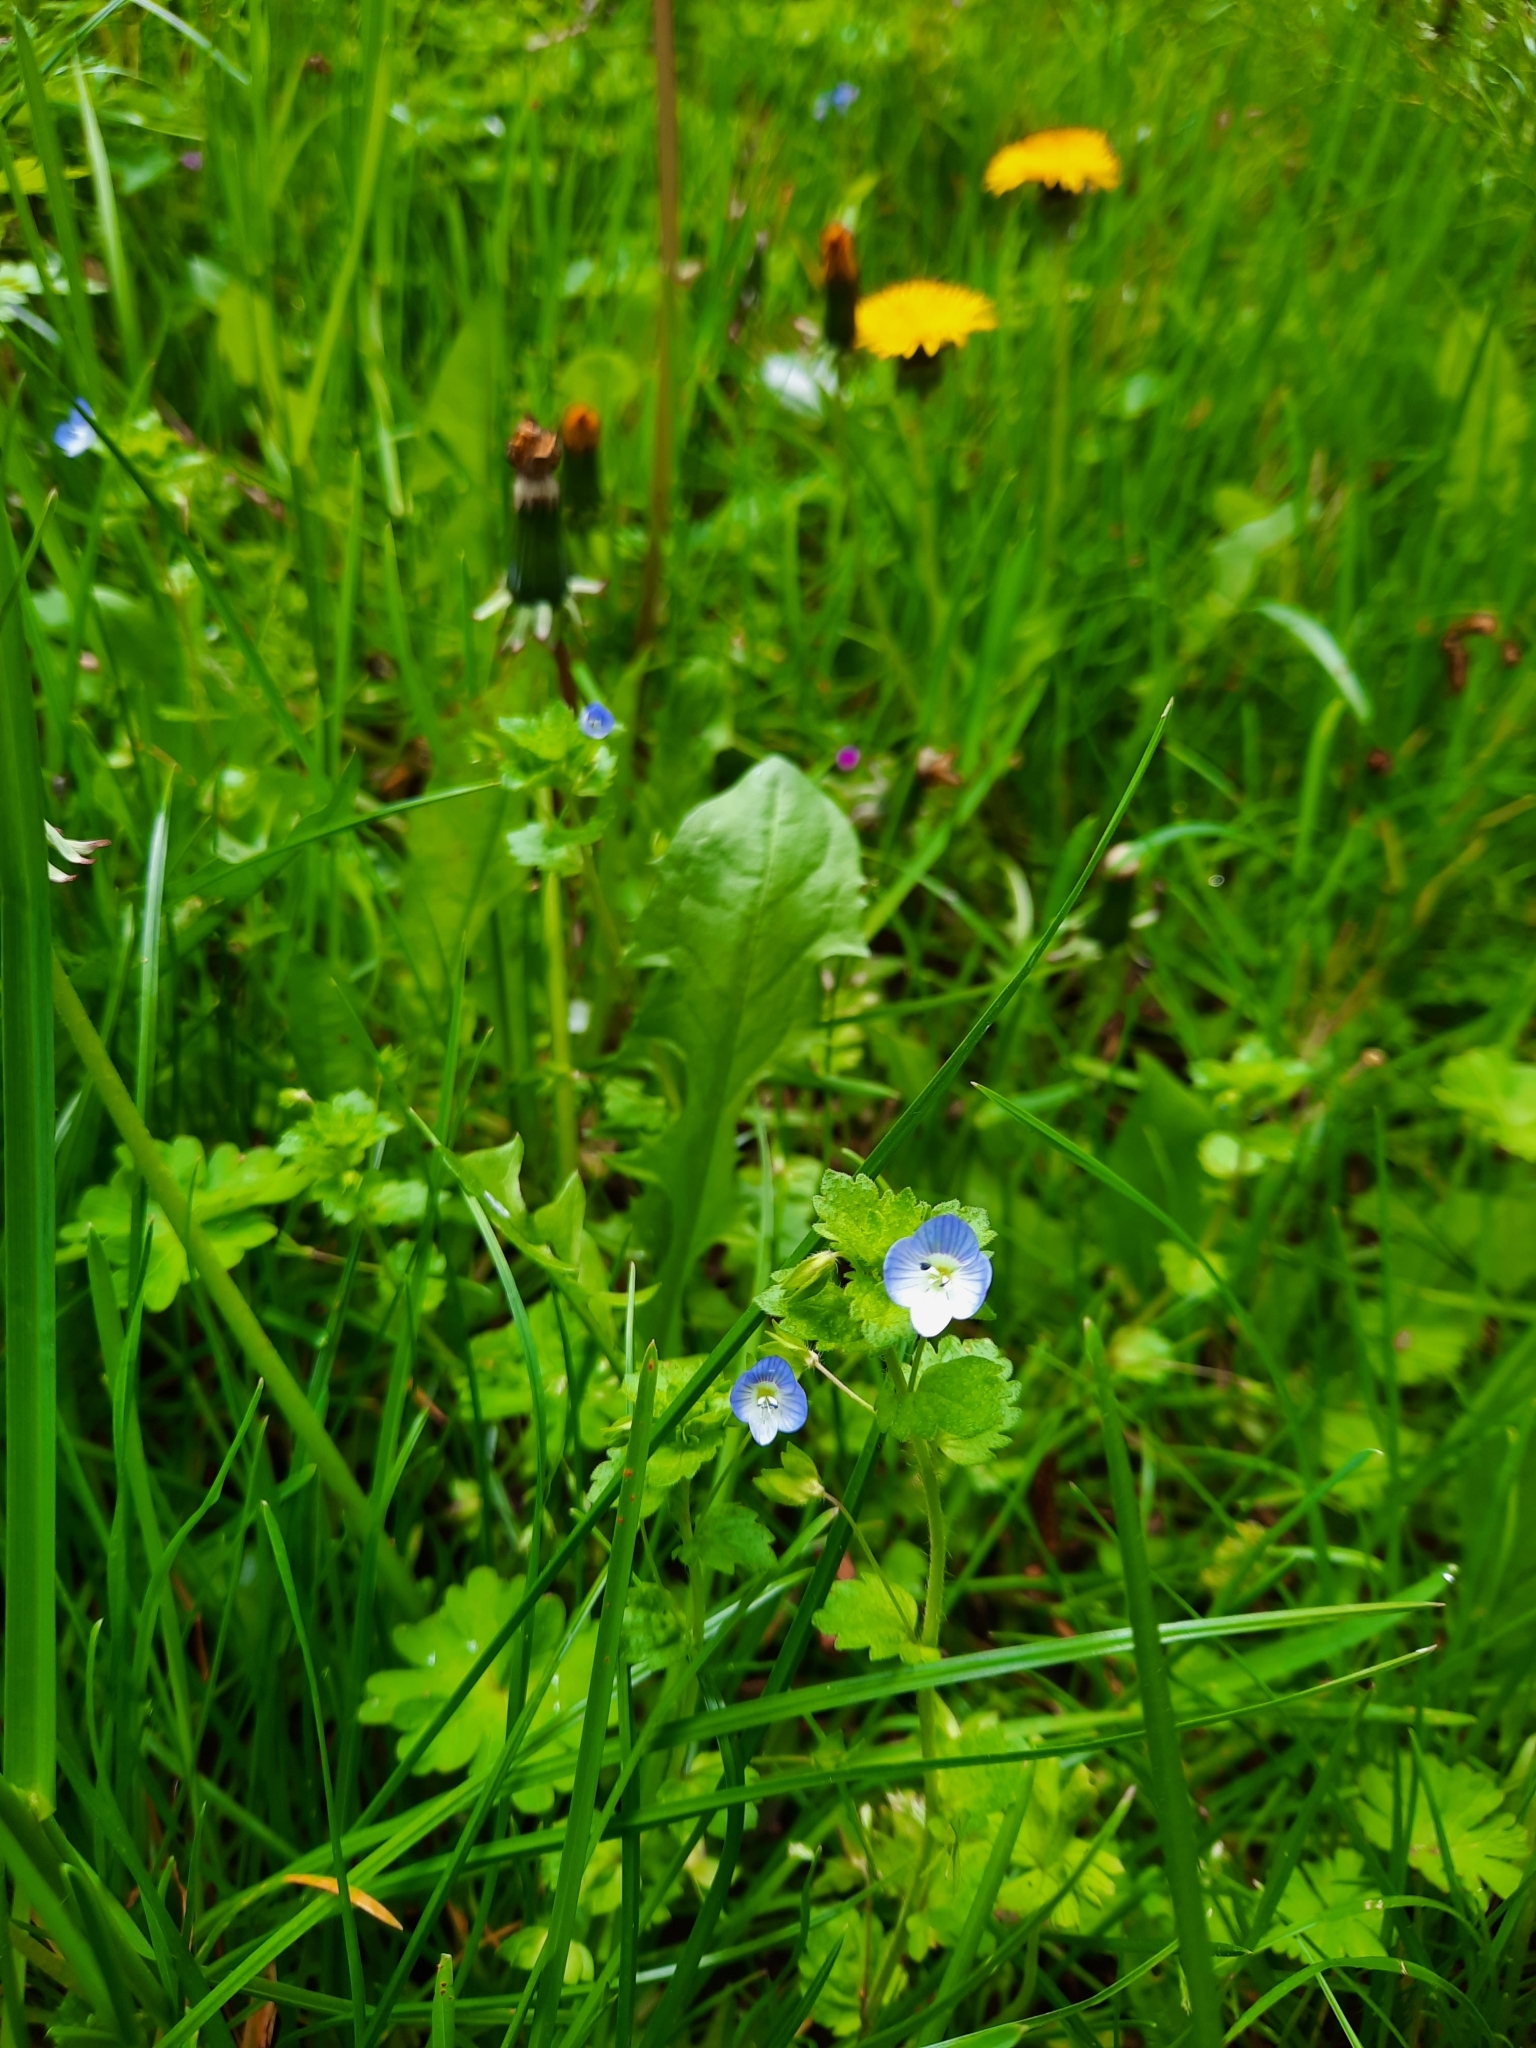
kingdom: Plantae
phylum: Tracheophyta
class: Magnoliopsida
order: Lamiales
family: Plantaginaceae
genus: Veronica
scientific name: Veronica persica
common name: Common field-speedwell
